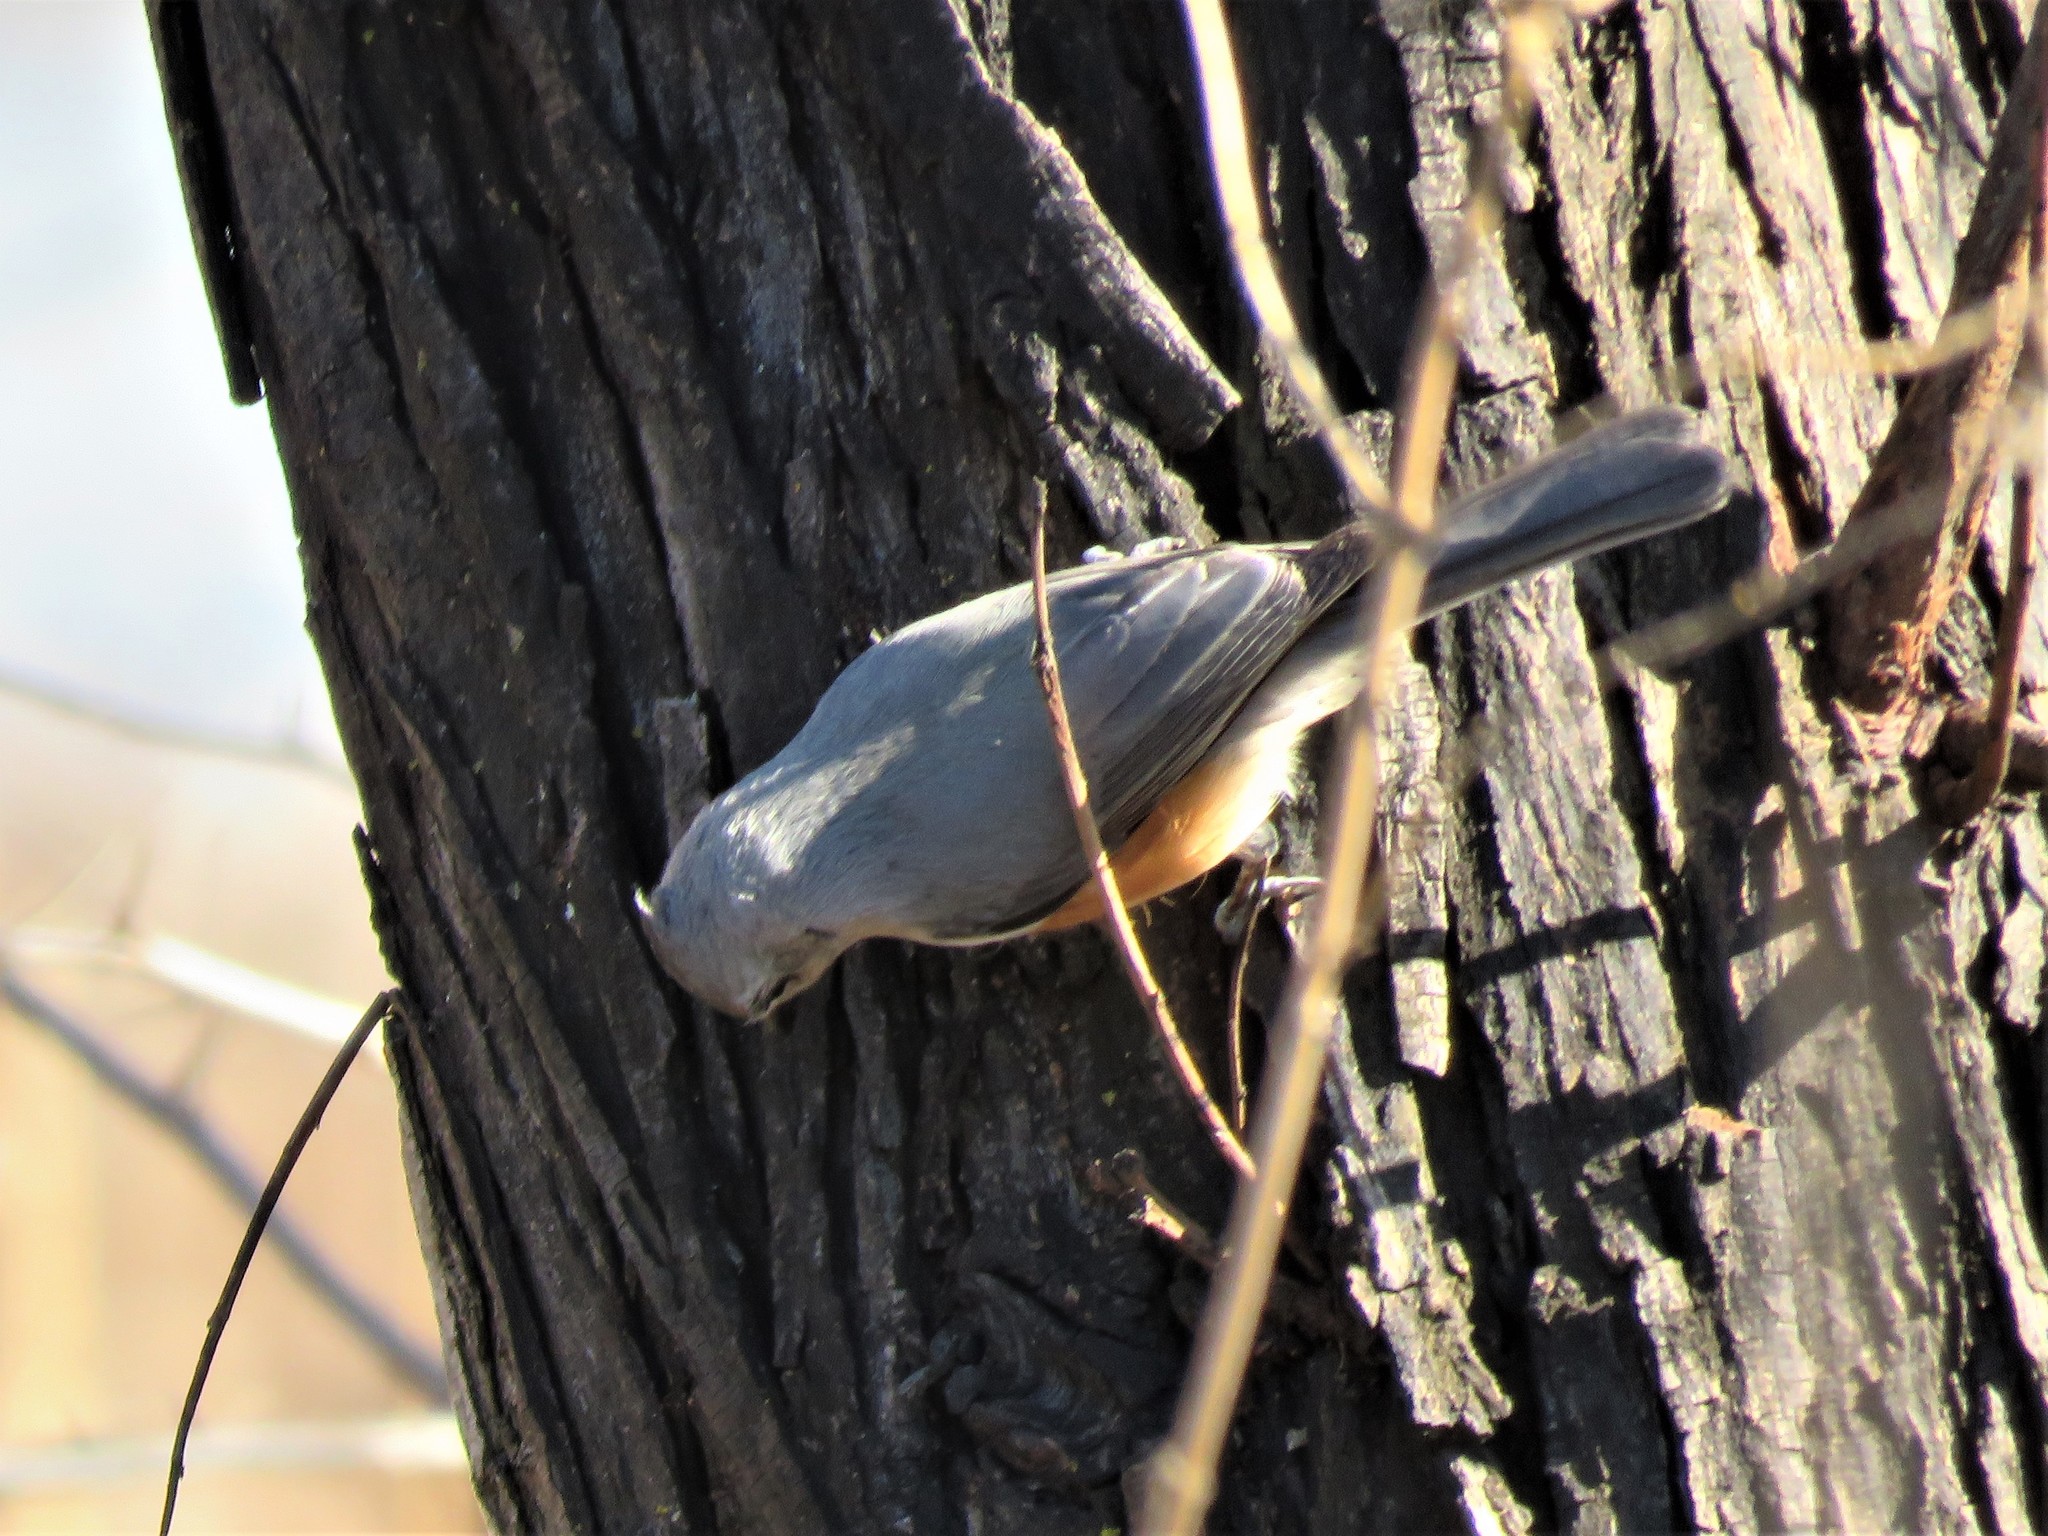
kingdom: Animalia
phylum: Chordata
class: Aves
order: Passeriformes
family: Paridae
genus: Baeolophus
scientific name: Baeolophus bicolor
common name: Tufted titmouse
